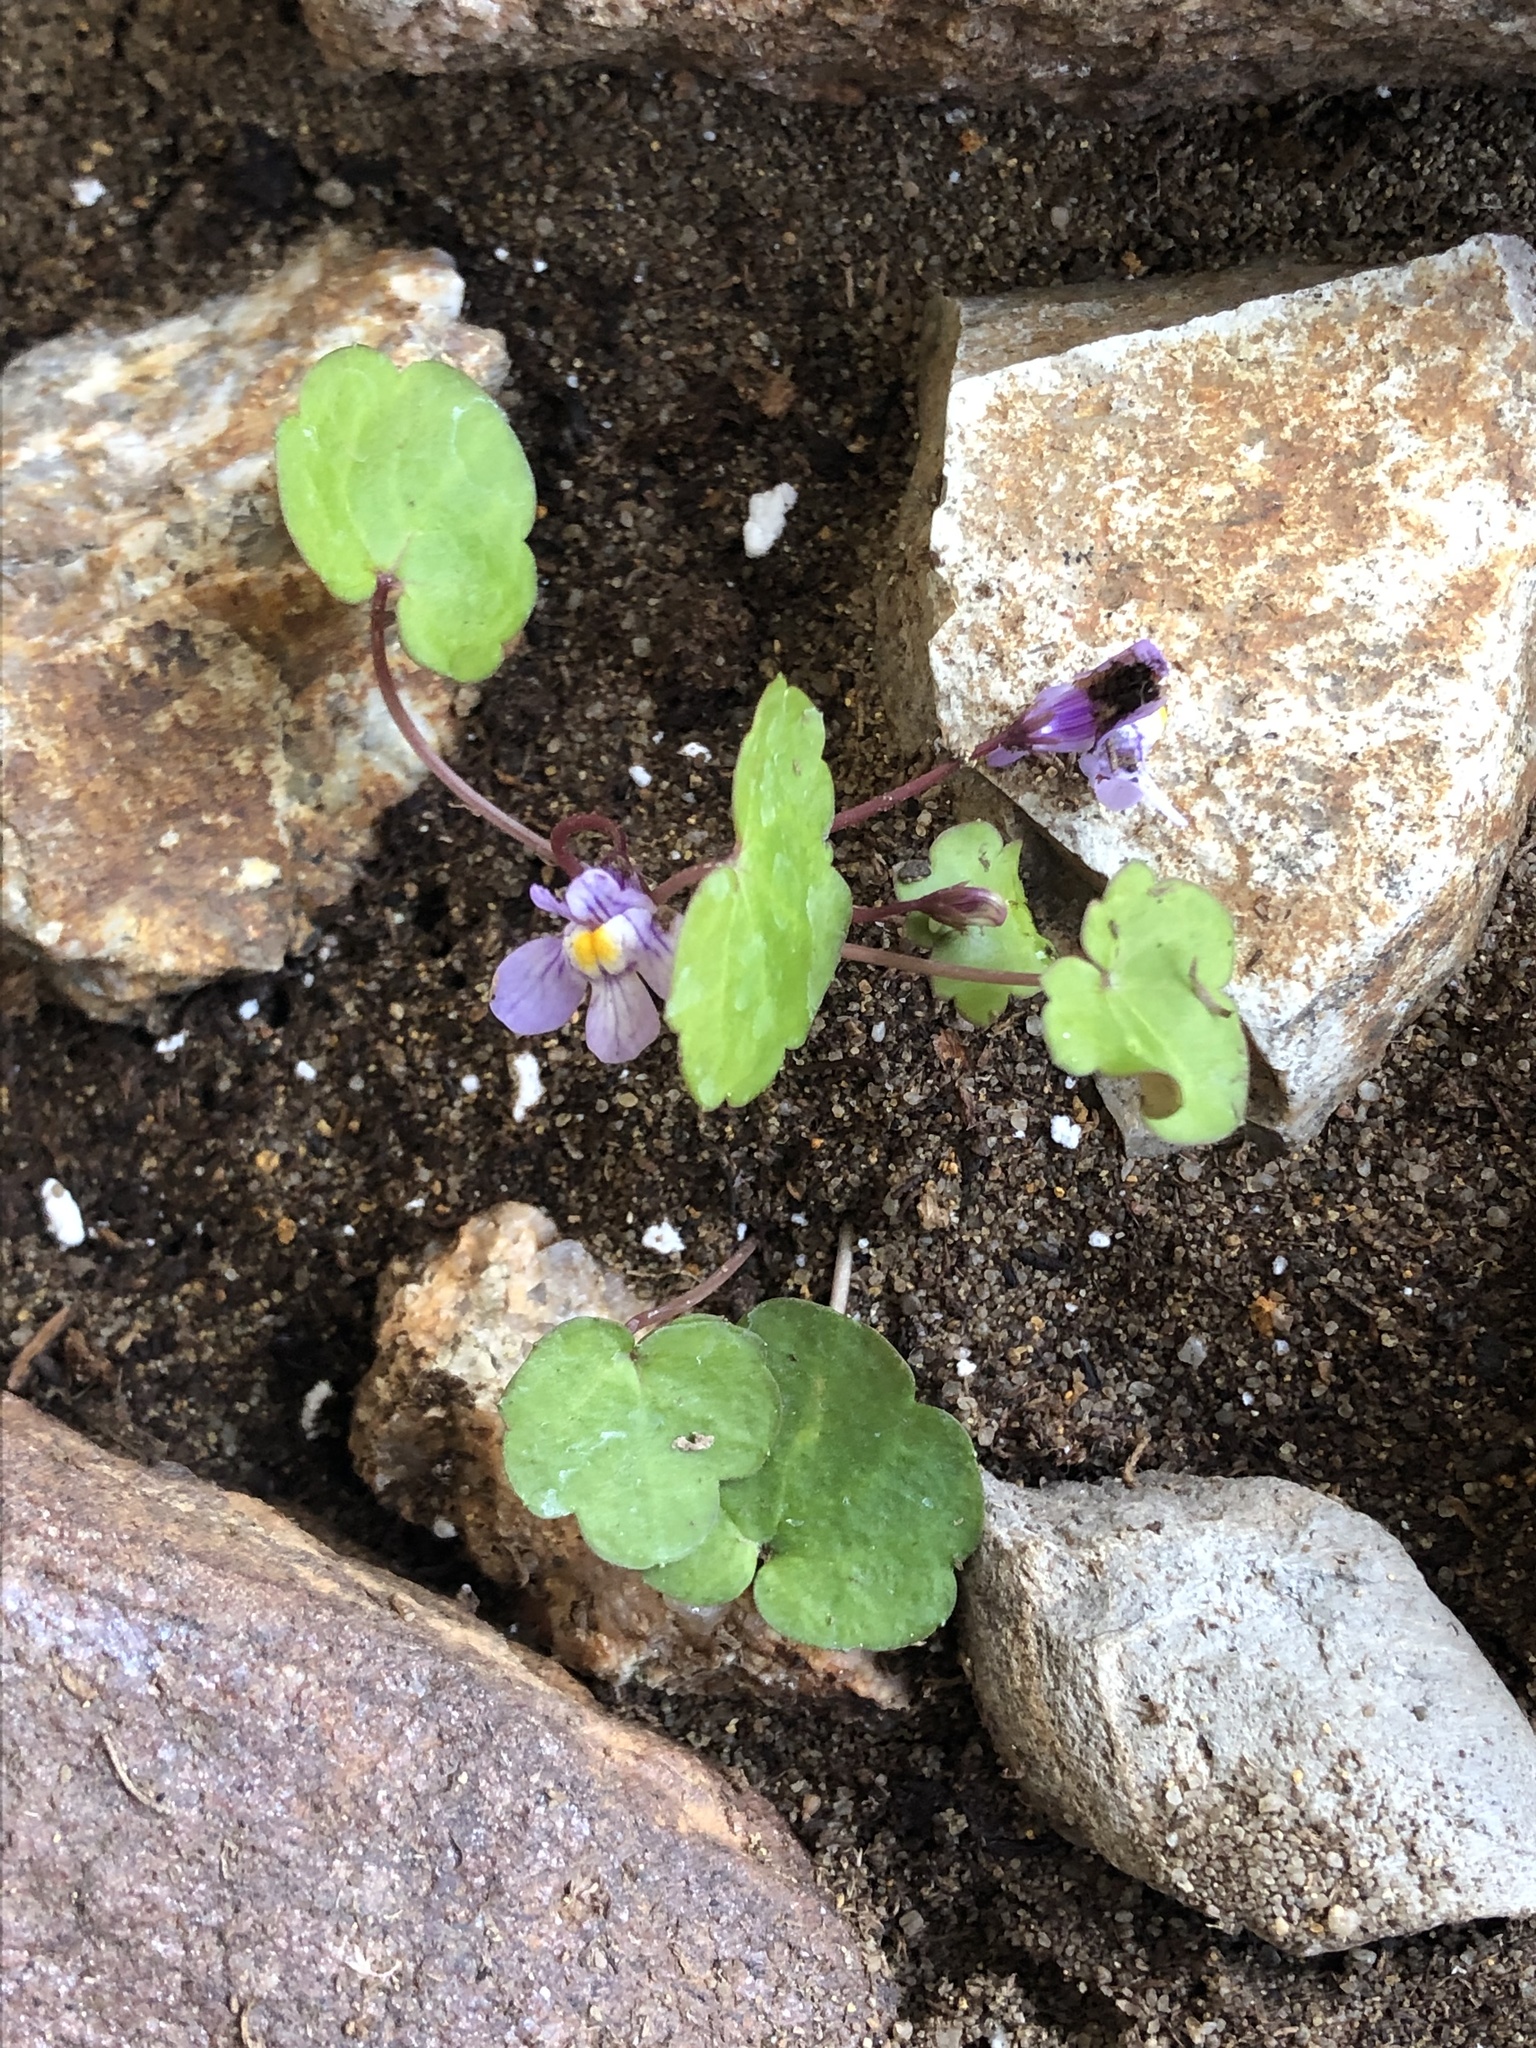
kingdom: Plantae
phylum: Tracheophyta
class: Magnoliopsida
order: Lamiales
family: Plantaginaceae
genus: Cymbalaria
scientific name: Cymbalaria muralis
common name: Ivy-leaved toadflax
